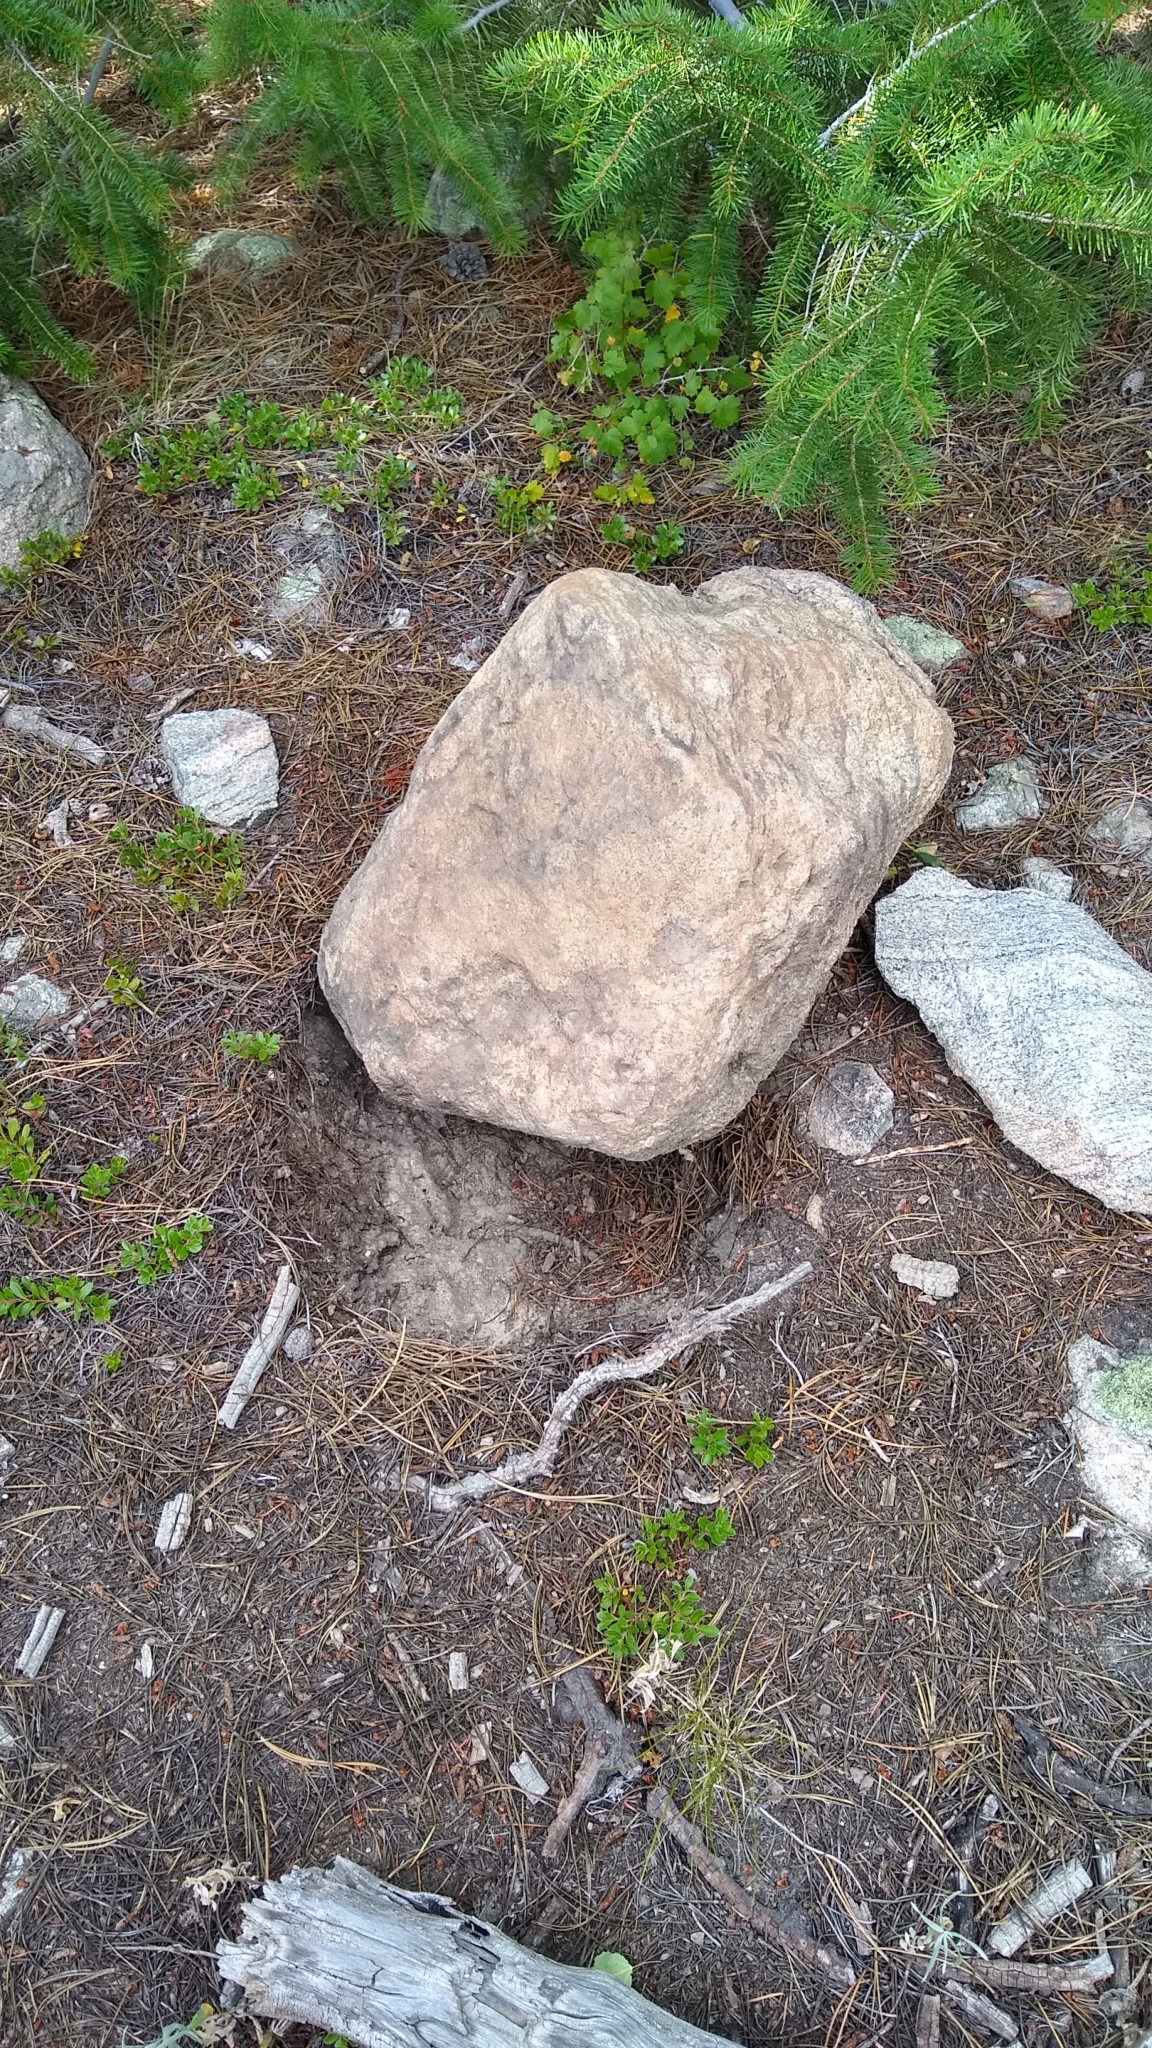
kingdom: Animalia
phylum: Chordata
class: Mammalia
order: Carnivora
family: Ursidae
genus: Ursus
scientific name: Ursus americanus
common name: American black bear
